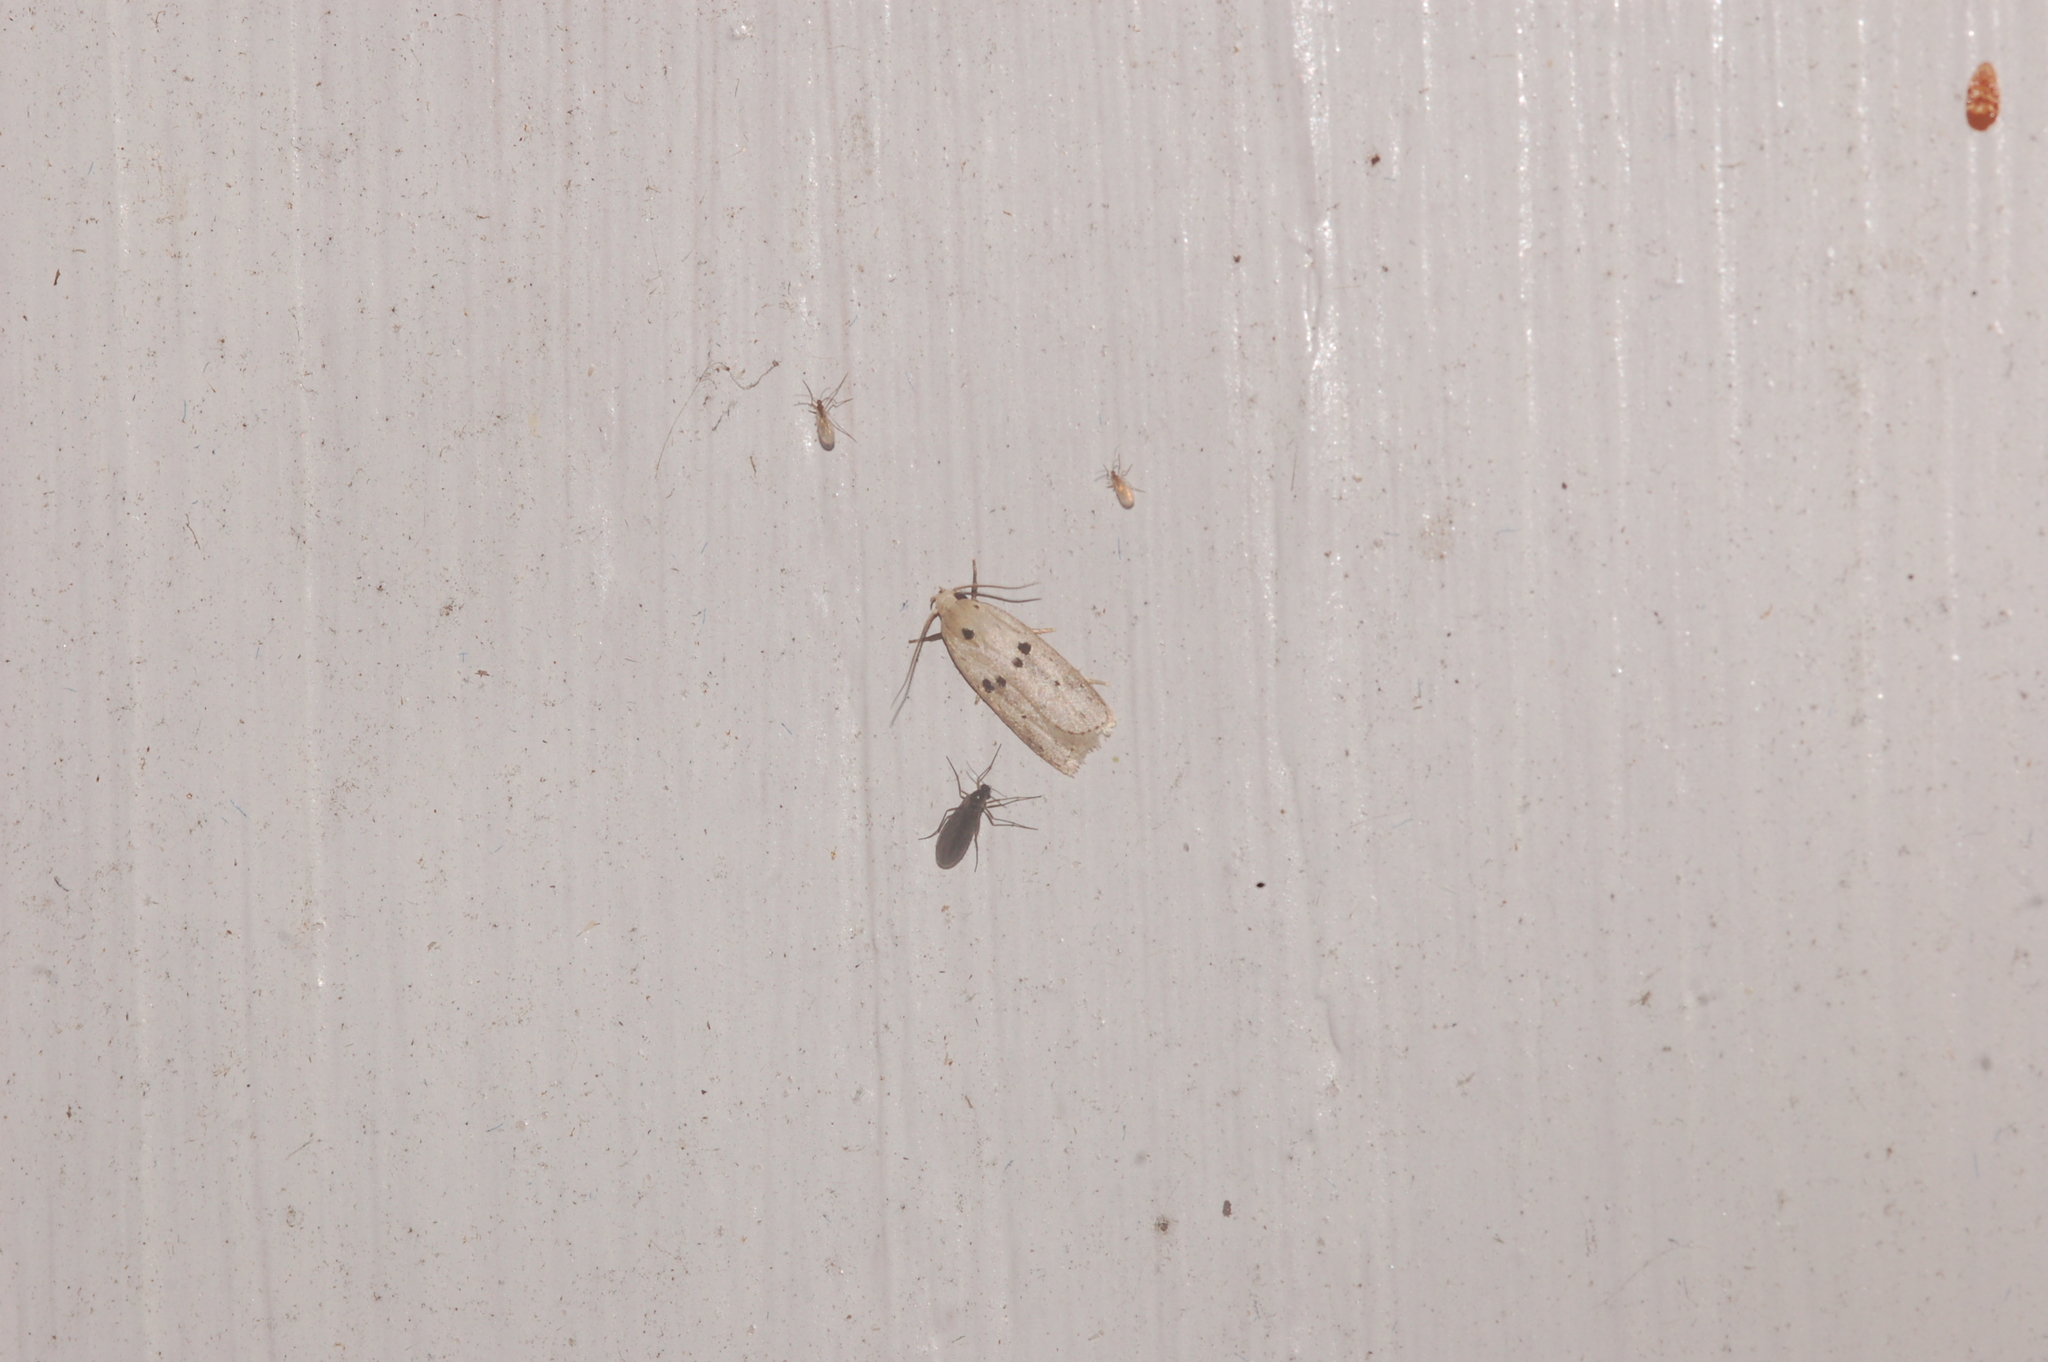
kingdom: Animalia
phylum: Arthropoda
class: Insecta
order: Lepidoptera
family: Peleopodidae
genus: Scythropiodes
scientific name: Scythropiodes issikii
